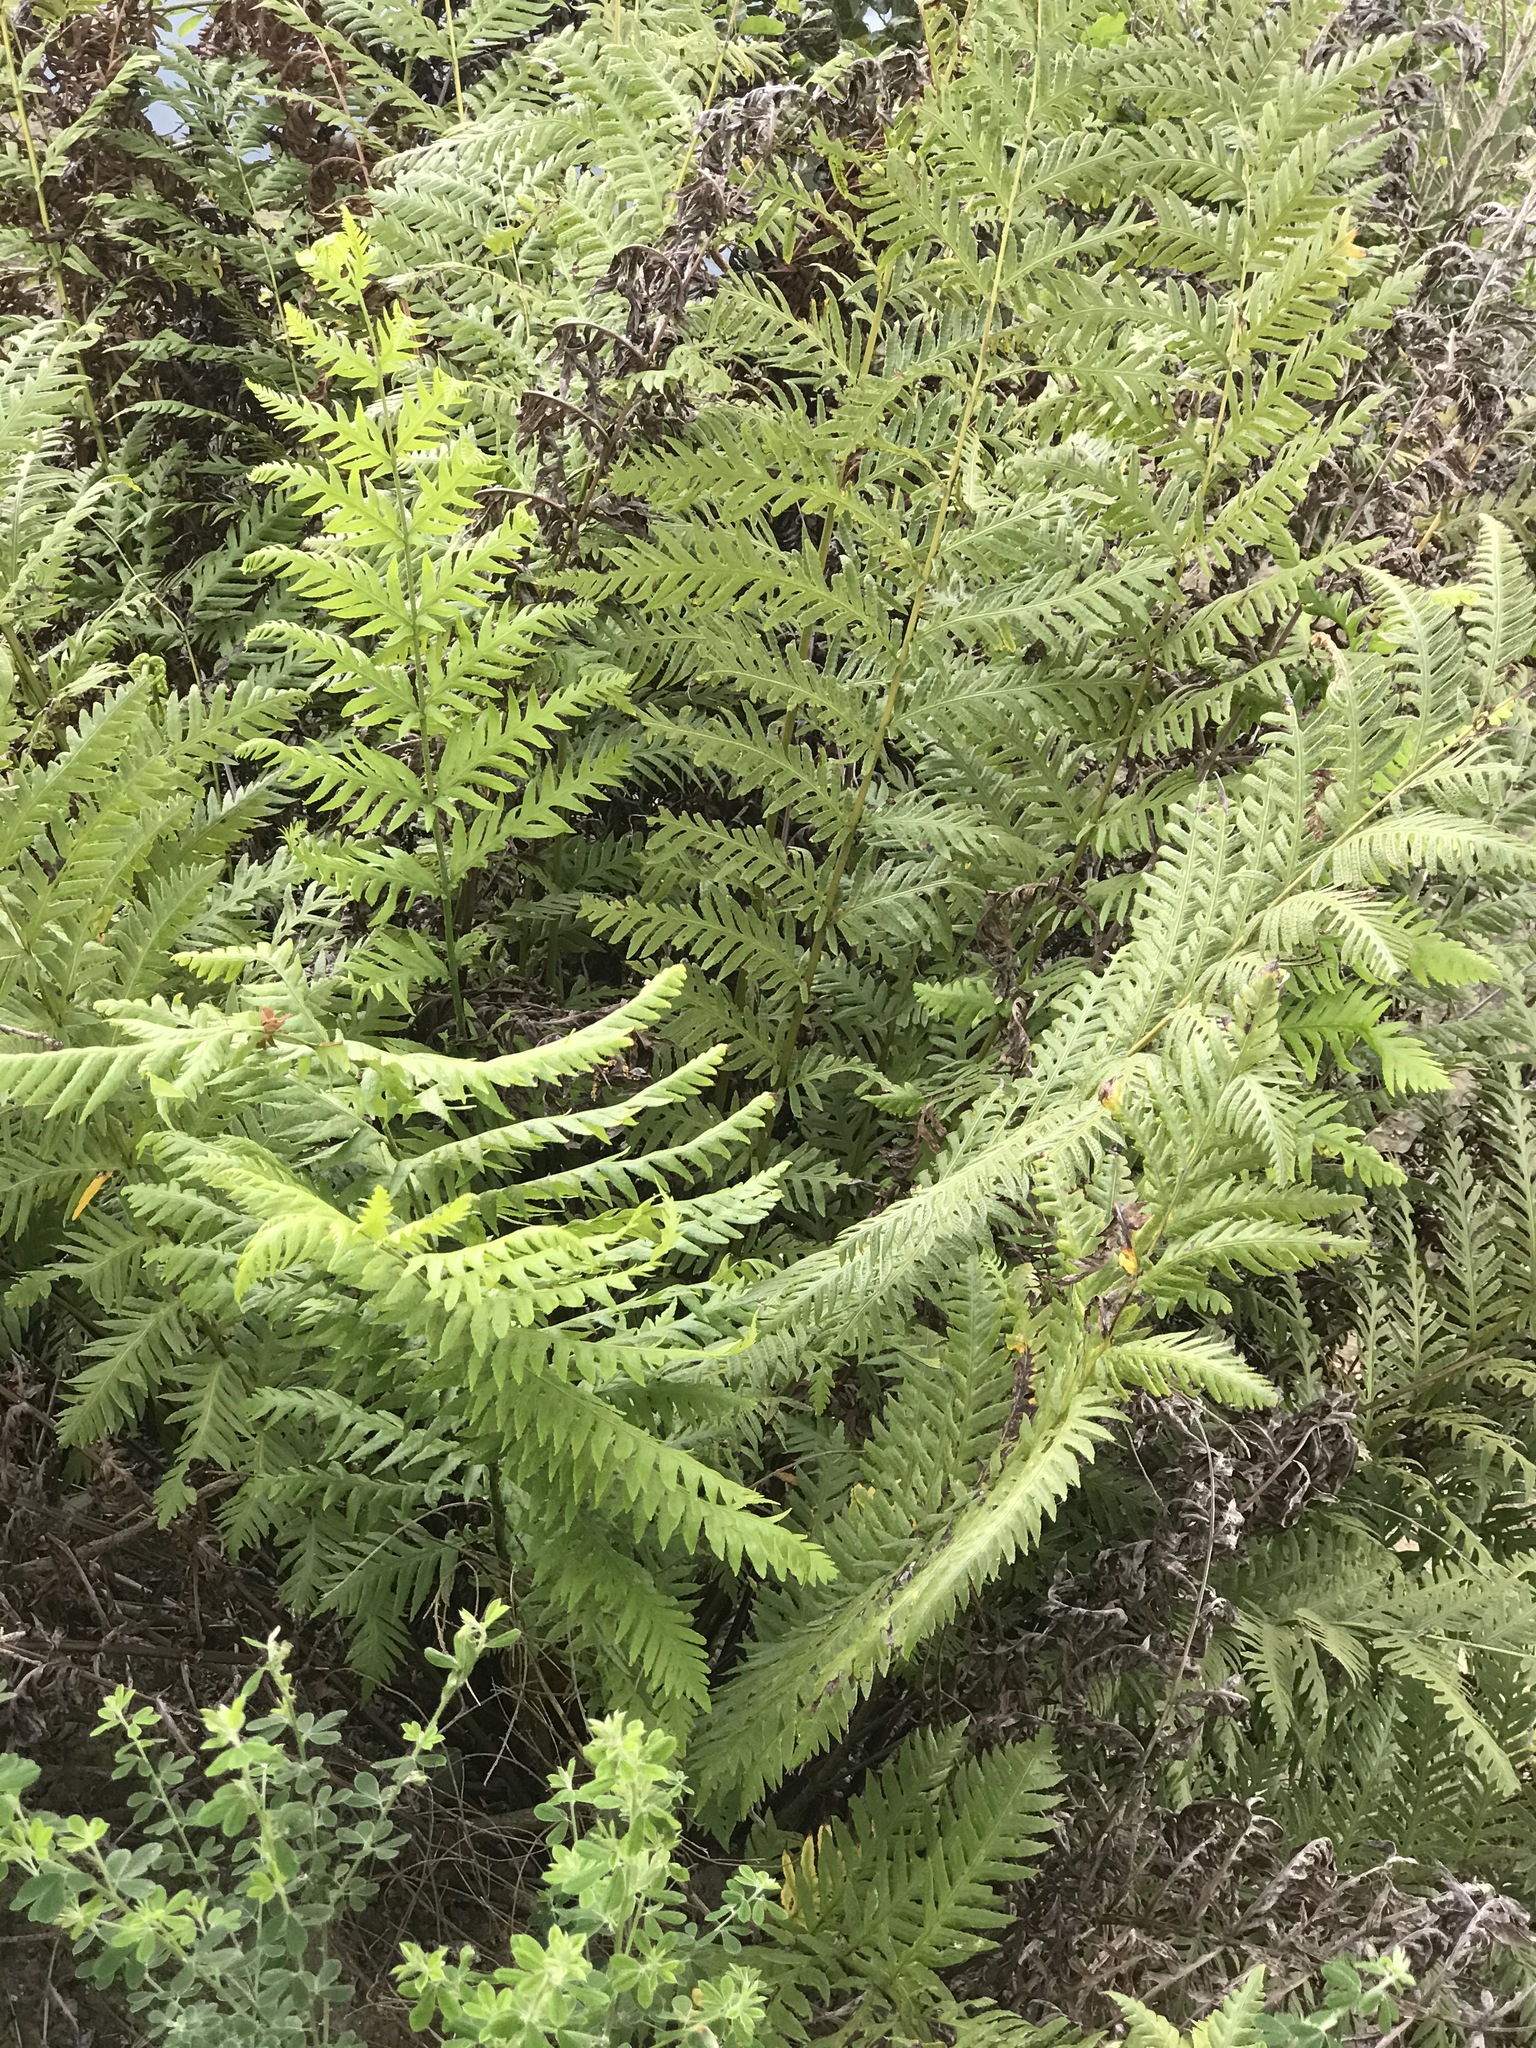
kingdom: Plantae
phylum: Tracheophyta
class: Polypodiopsida
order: Polypodiales
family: Blechnaceae
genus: Woodwardia
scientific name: Woodwardia fimbriata
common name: Giant chain fern
